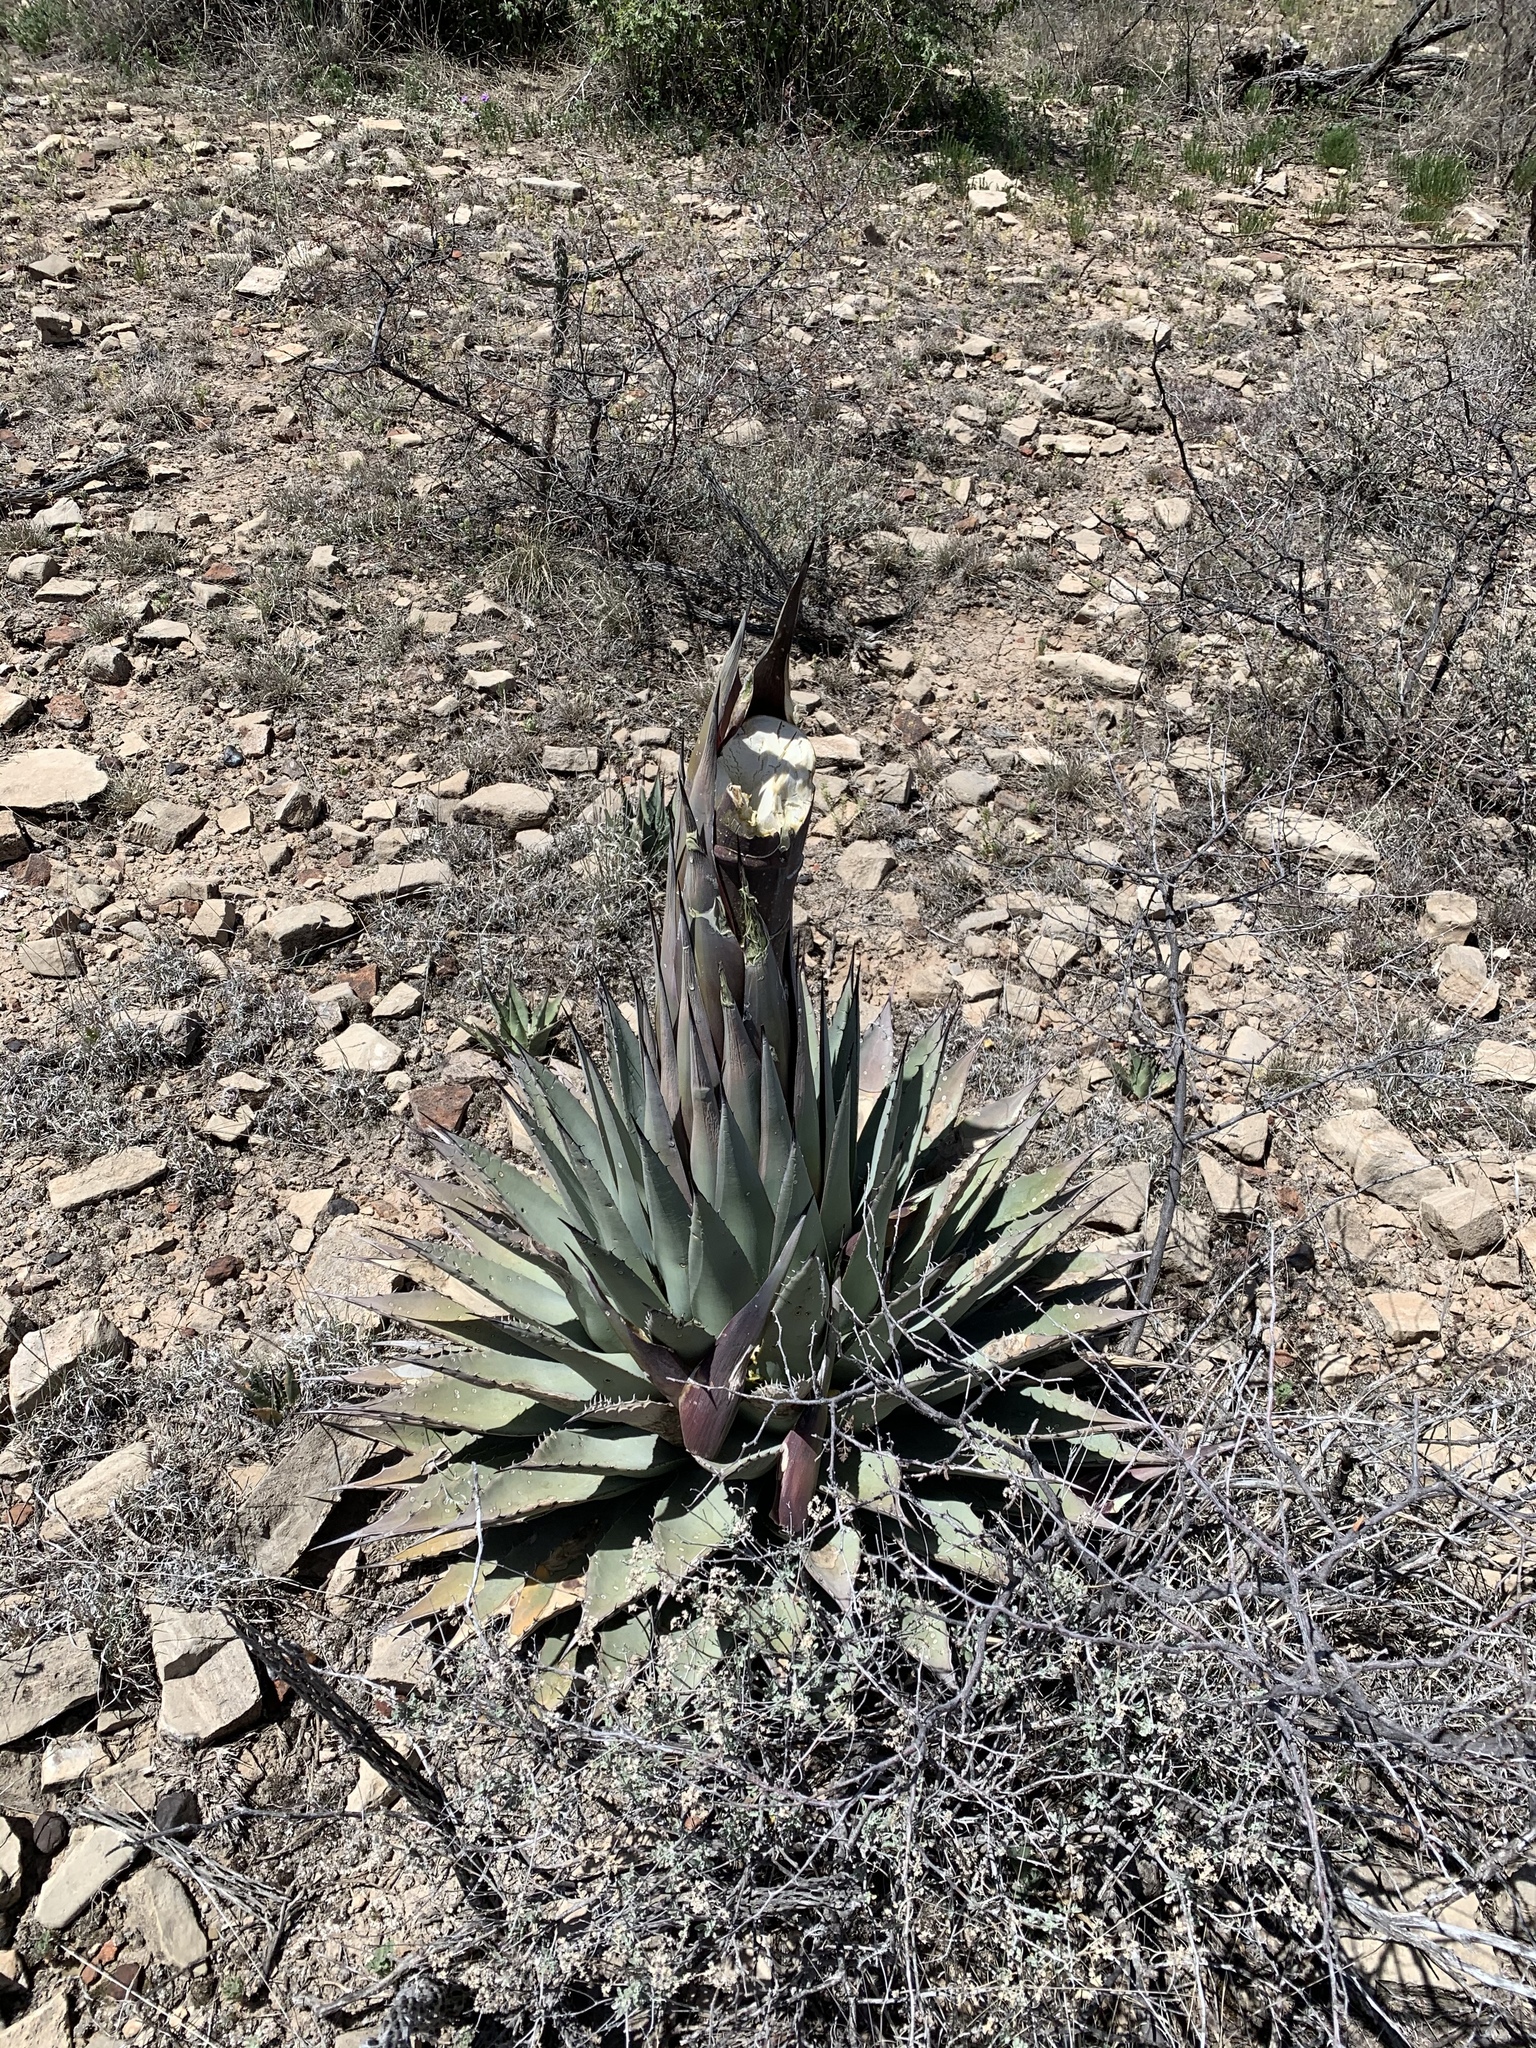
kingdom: Plantae
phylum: Tracheophyta
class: Liliopsida
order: Asparagales
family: Asparagaceae
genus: Agave
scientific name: Agave parryi
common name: Parry's agave
